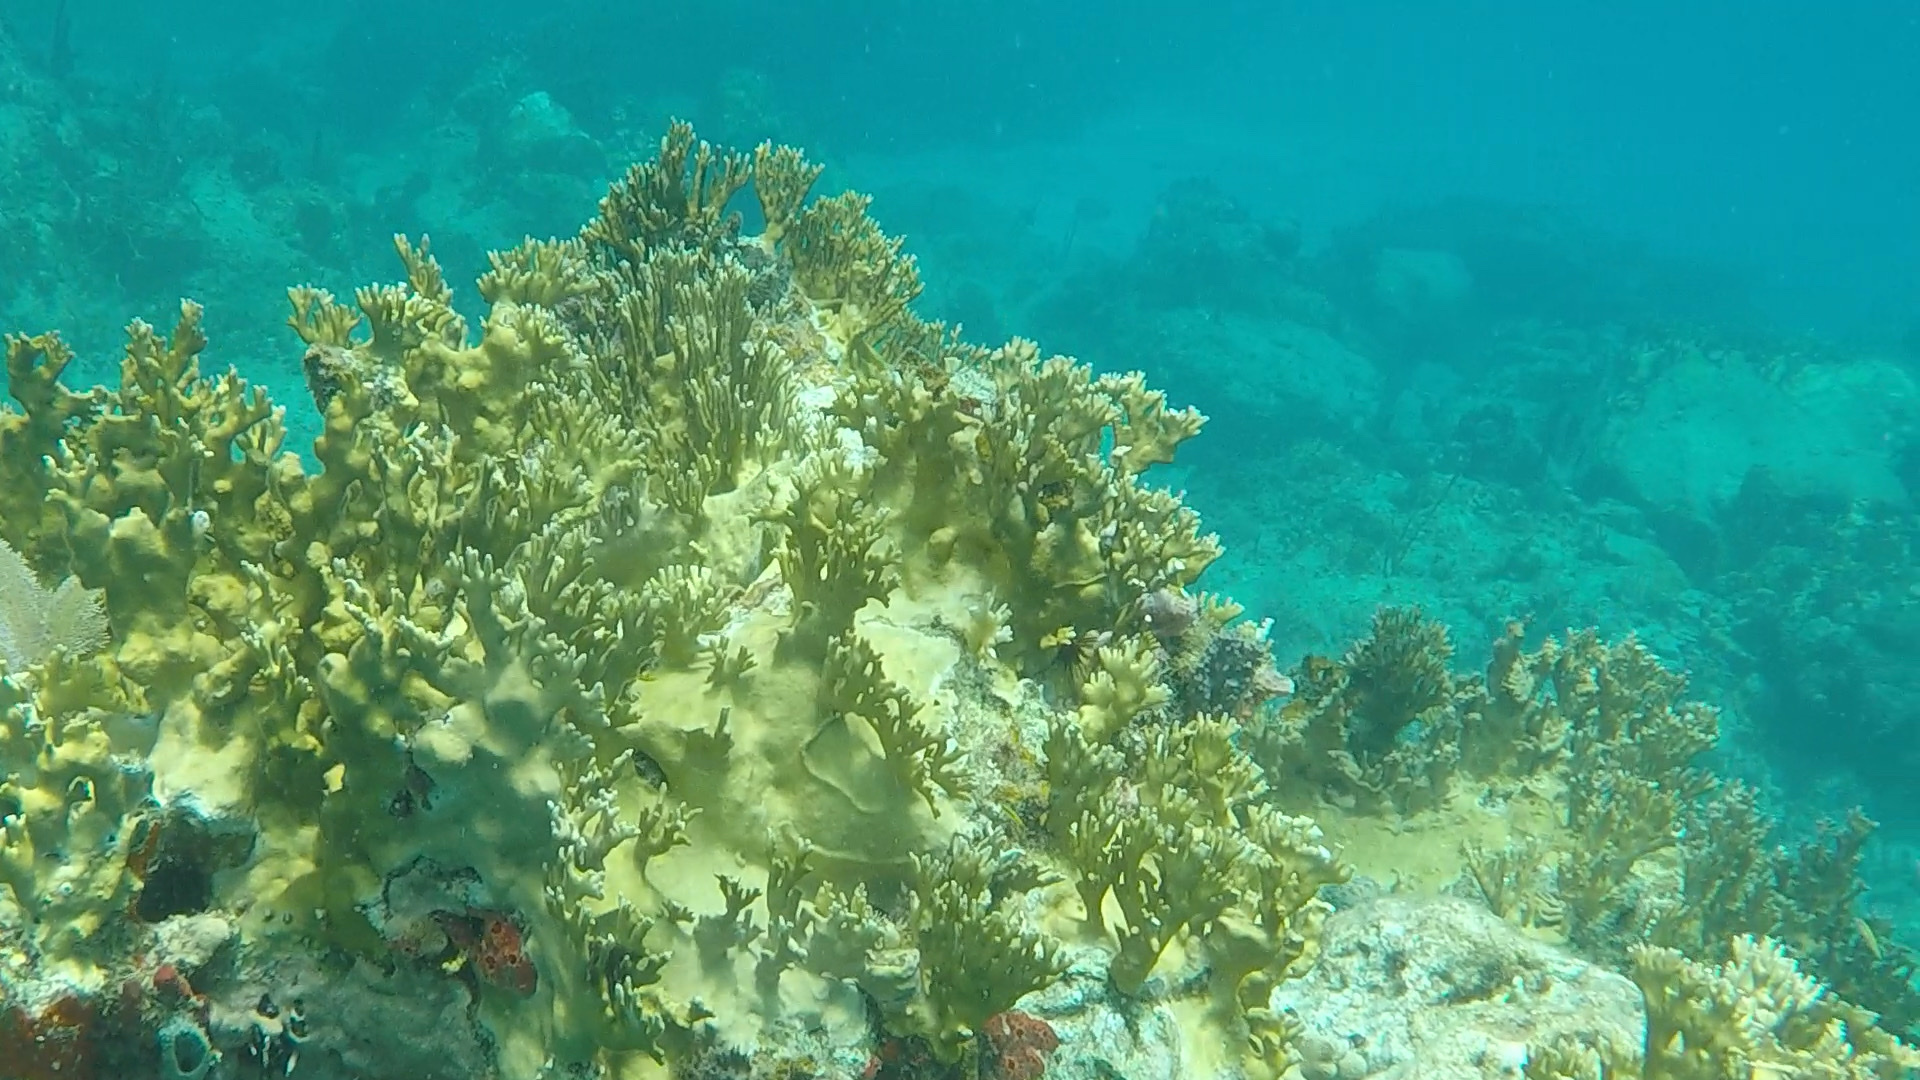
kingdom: Animalia
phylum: Cnidaria
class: Hydrozoa
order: Anthoathecata
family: Milleporidae
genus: Millepora
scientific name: Millepora alcicornis
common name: Branching fire coral
